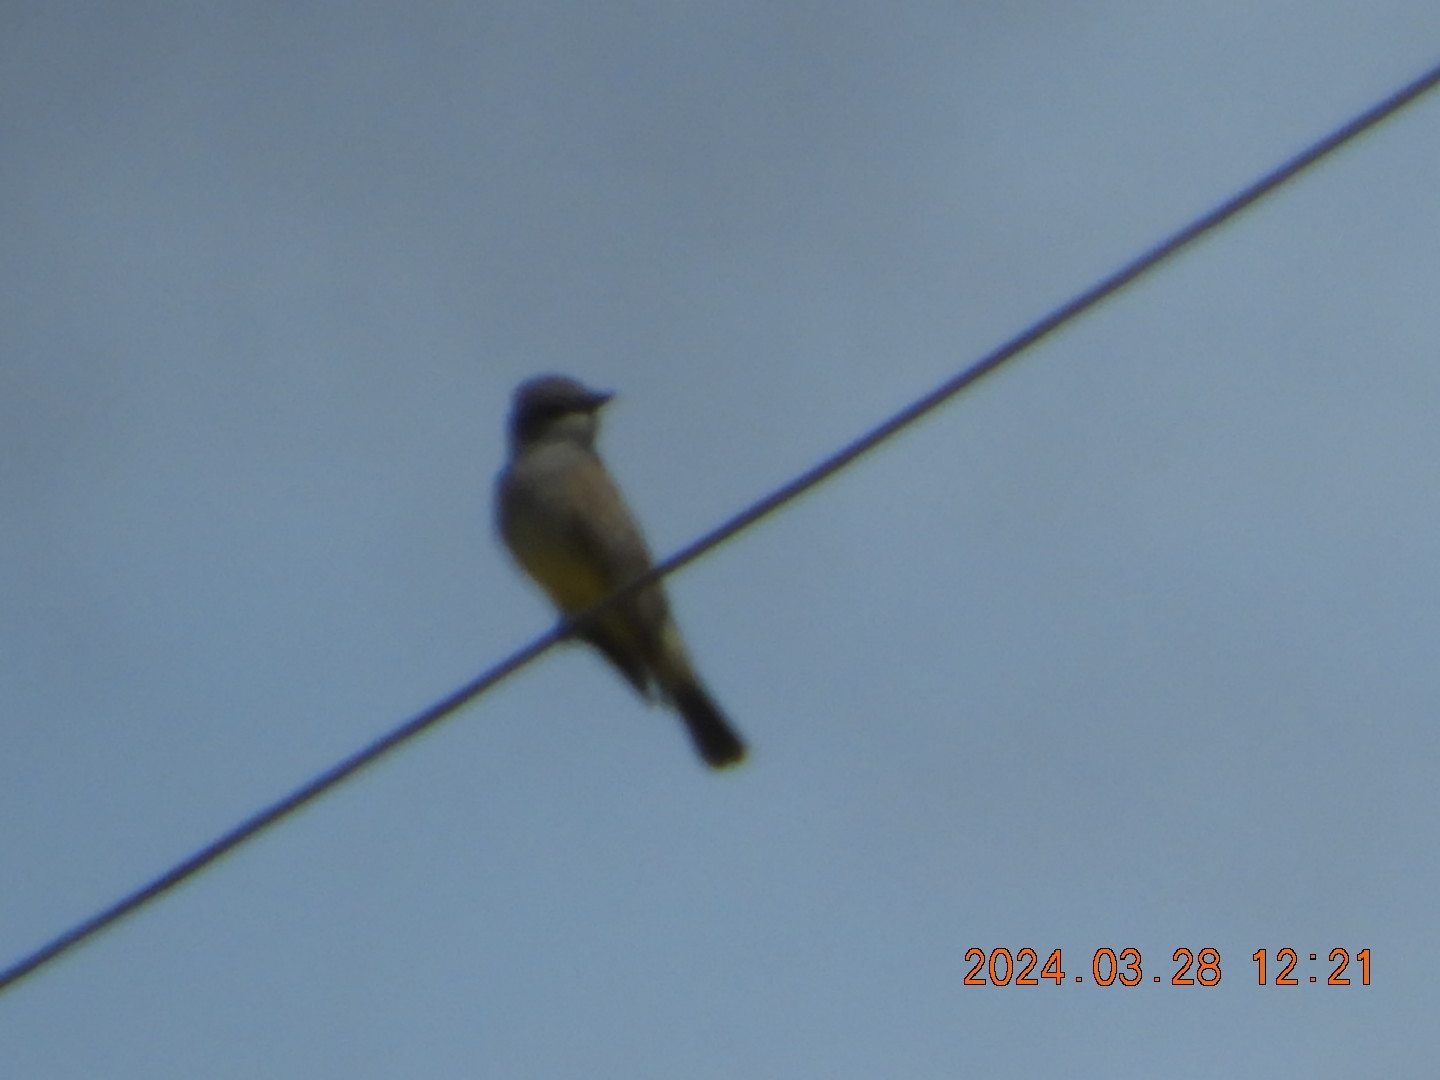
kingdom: Animalia
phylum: Chordata
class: Aves
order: Passeriformes
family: Tyrannidae
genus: Tyrannus
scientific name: Tyrannus vociferans
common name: Cassin's kingbird
